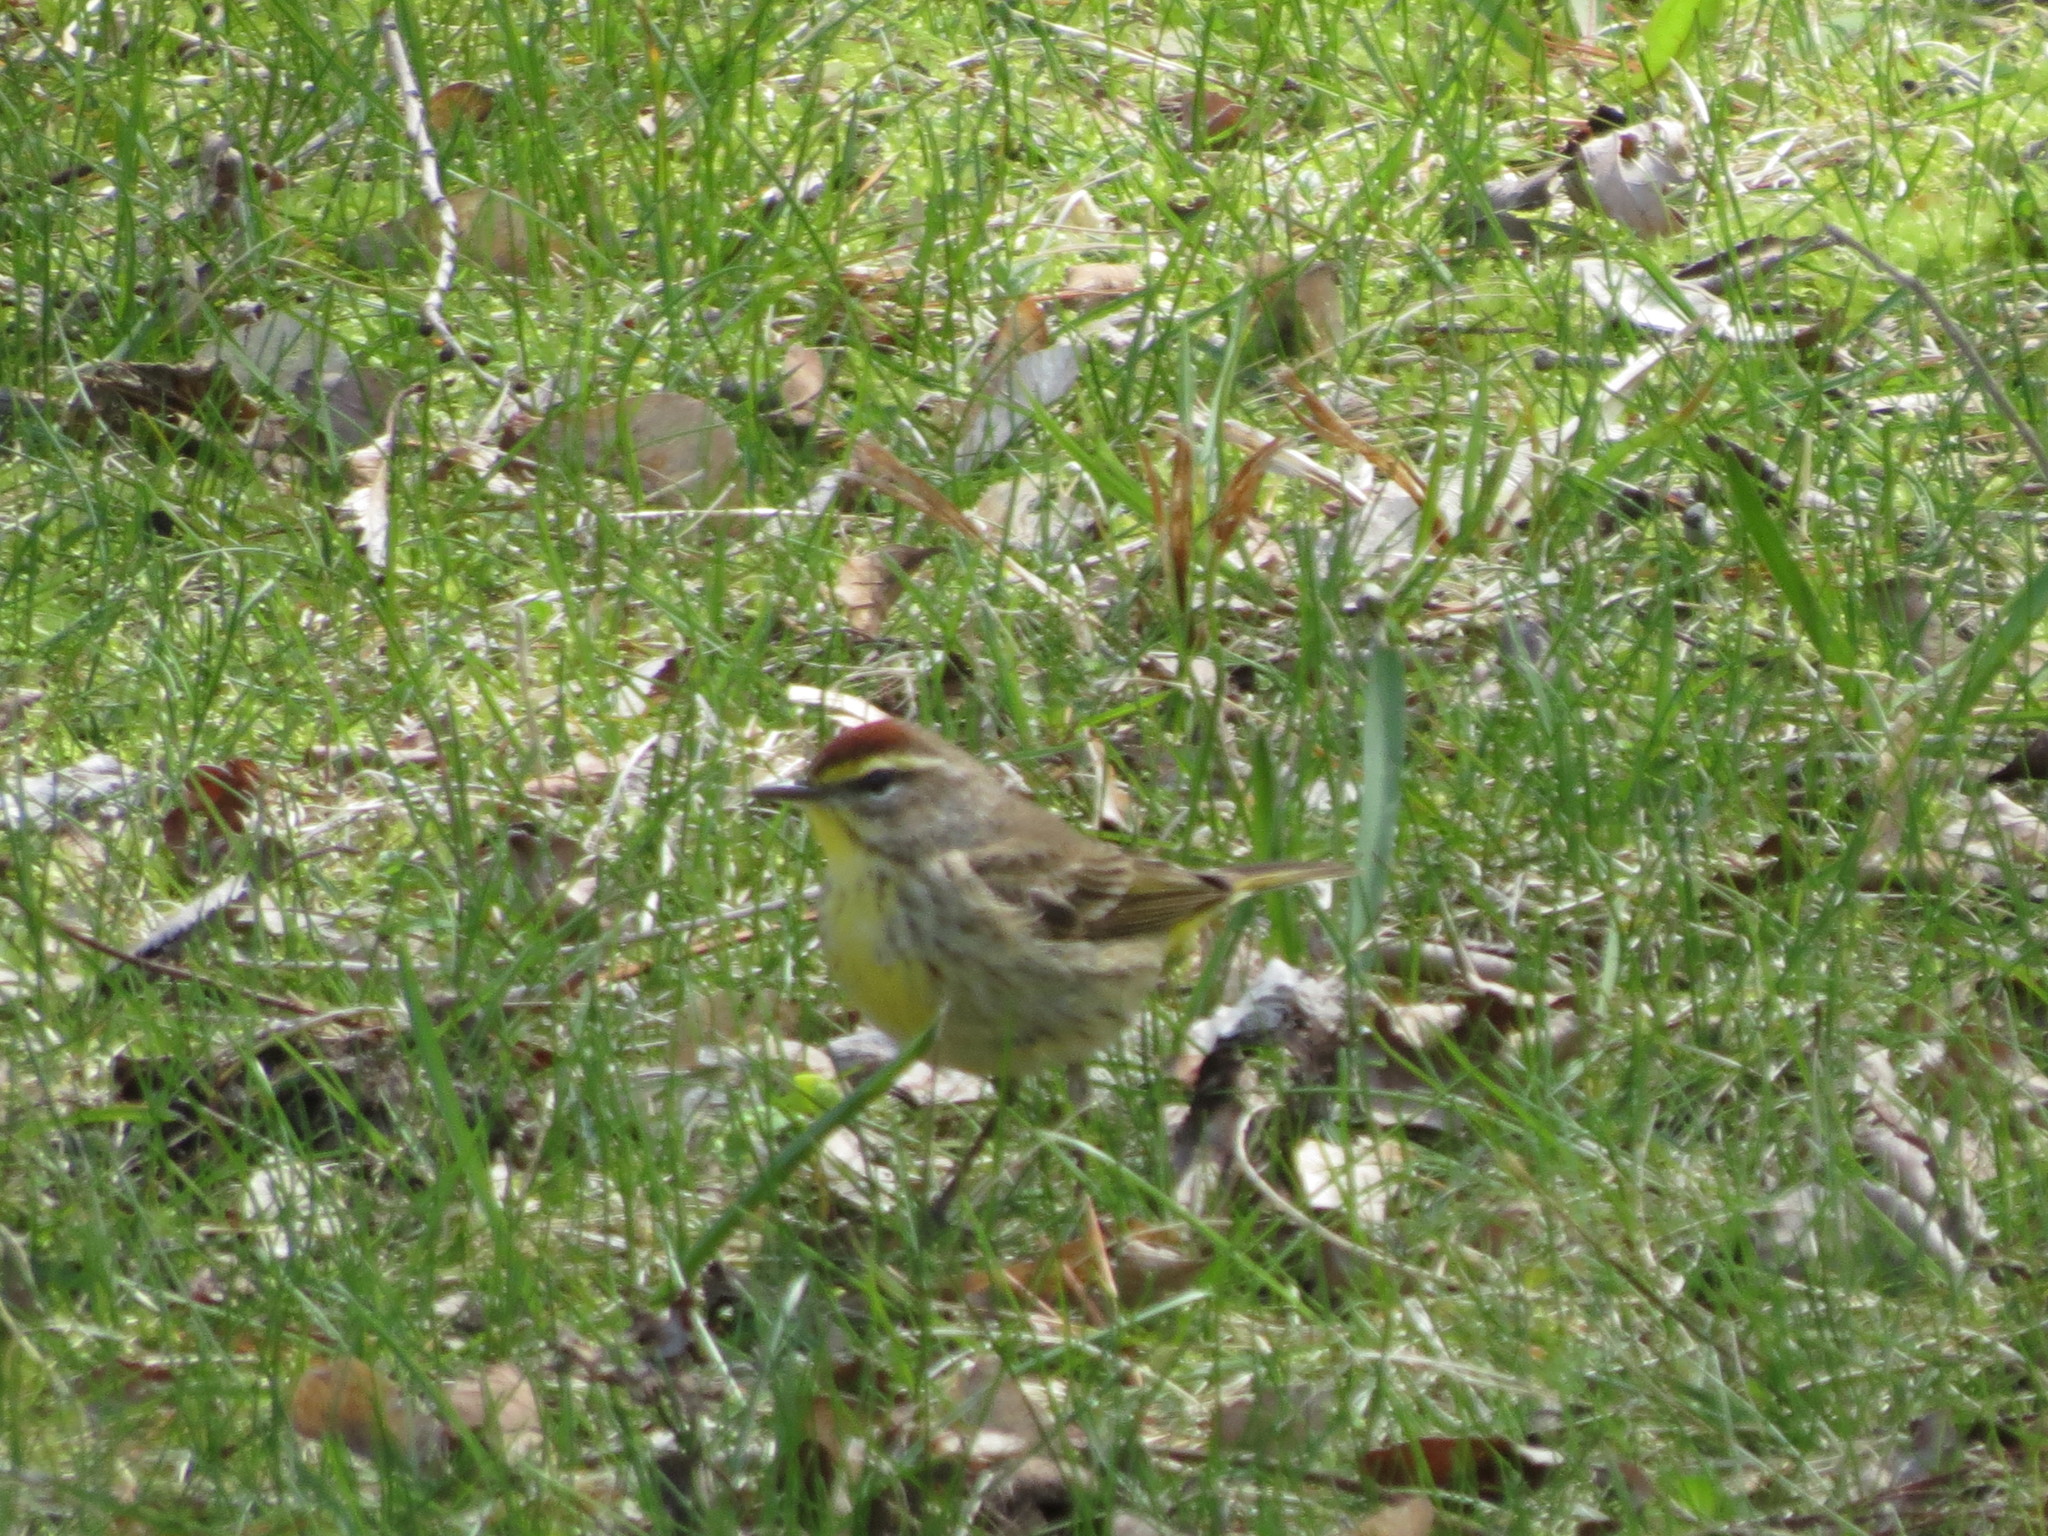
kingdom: Animalia
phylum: Chordata
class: Aves
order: Passeriformes
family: Parulidae
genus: Setophaga
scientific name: Setophaga palmarum
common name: Palm warbler
